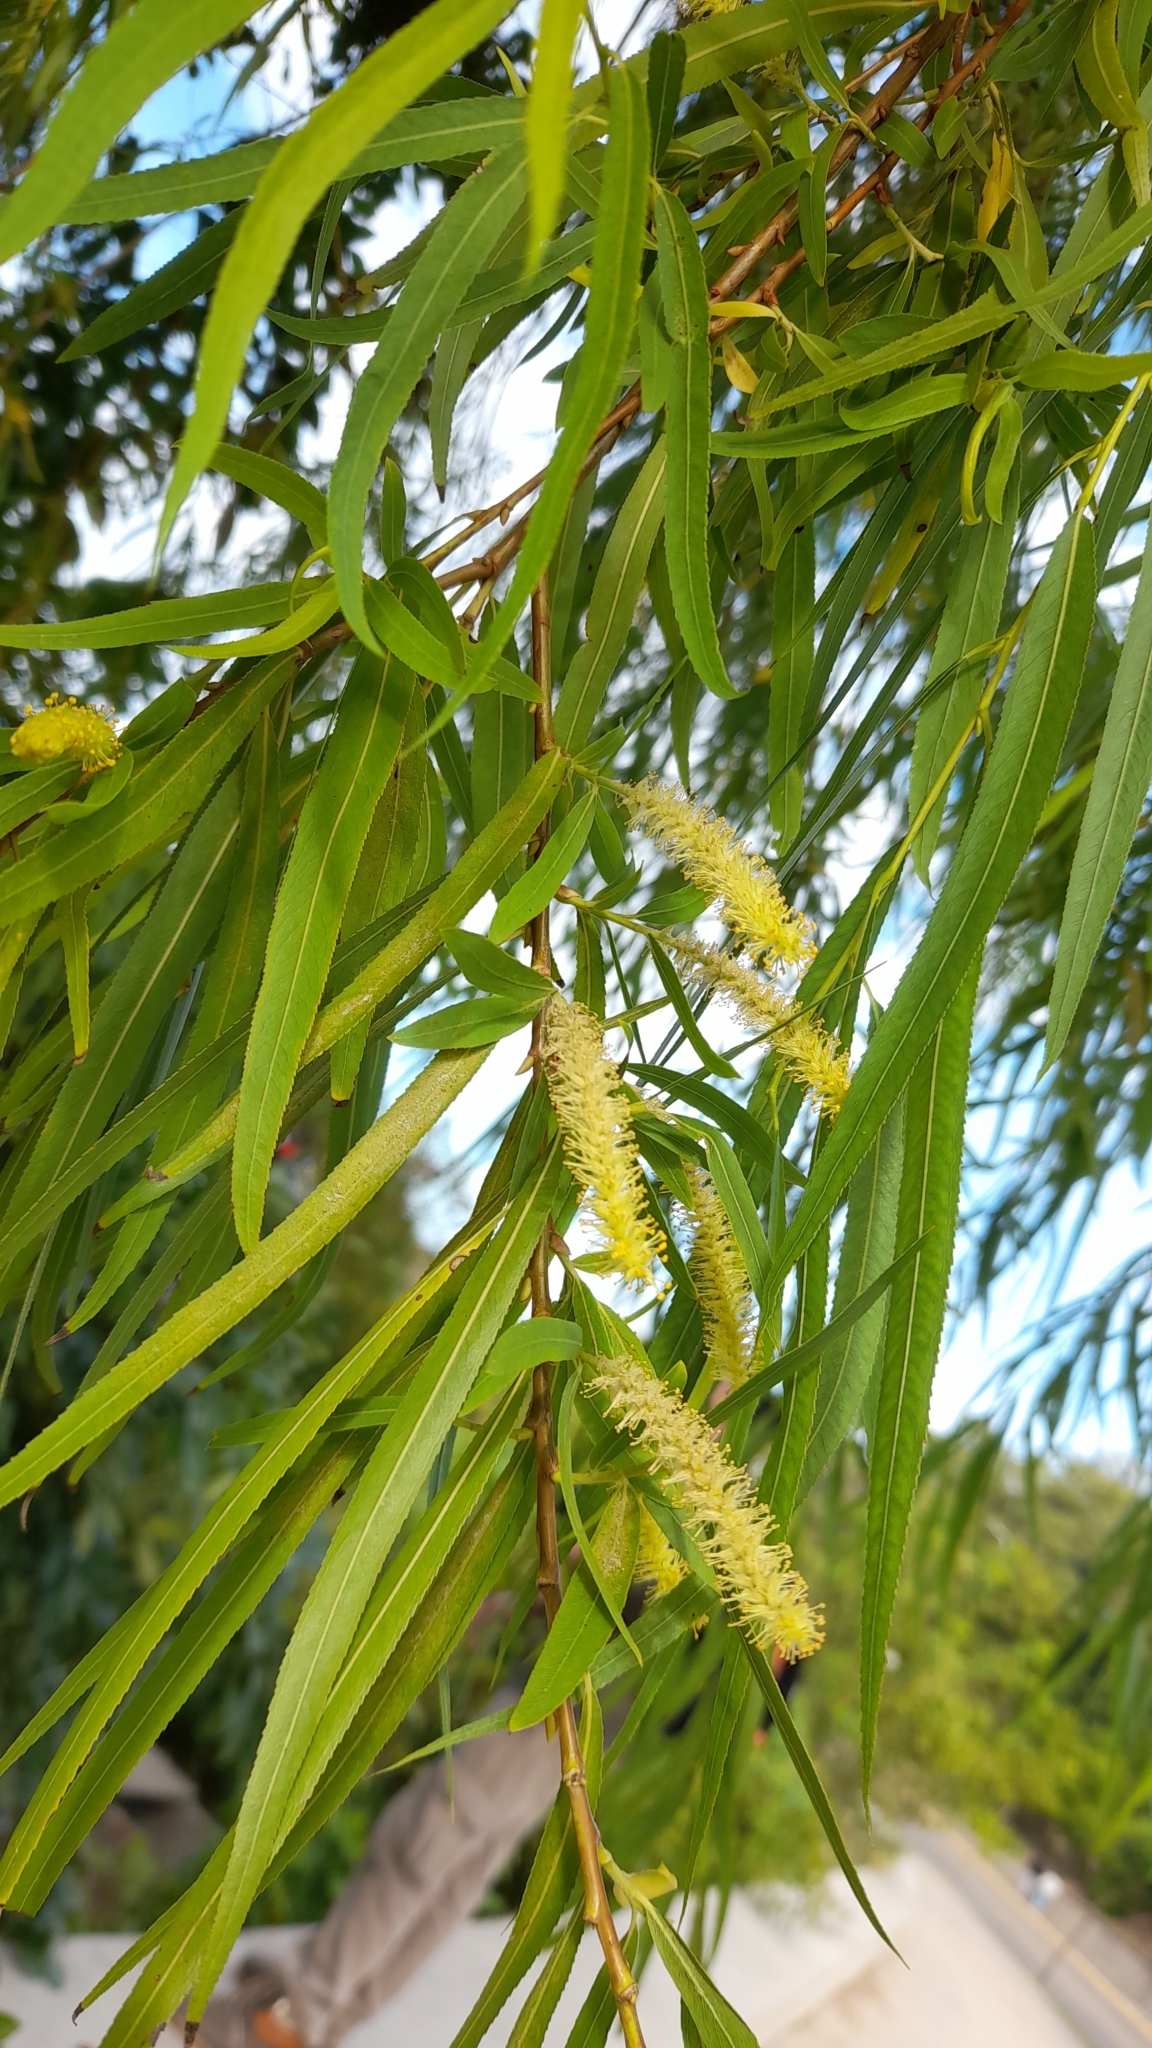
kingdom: Plantae
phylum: Tracheophyta
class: Magnoliopsida
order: Malpighiales
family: Salicaceae
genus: Salix
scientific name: Salix humboldtiana
